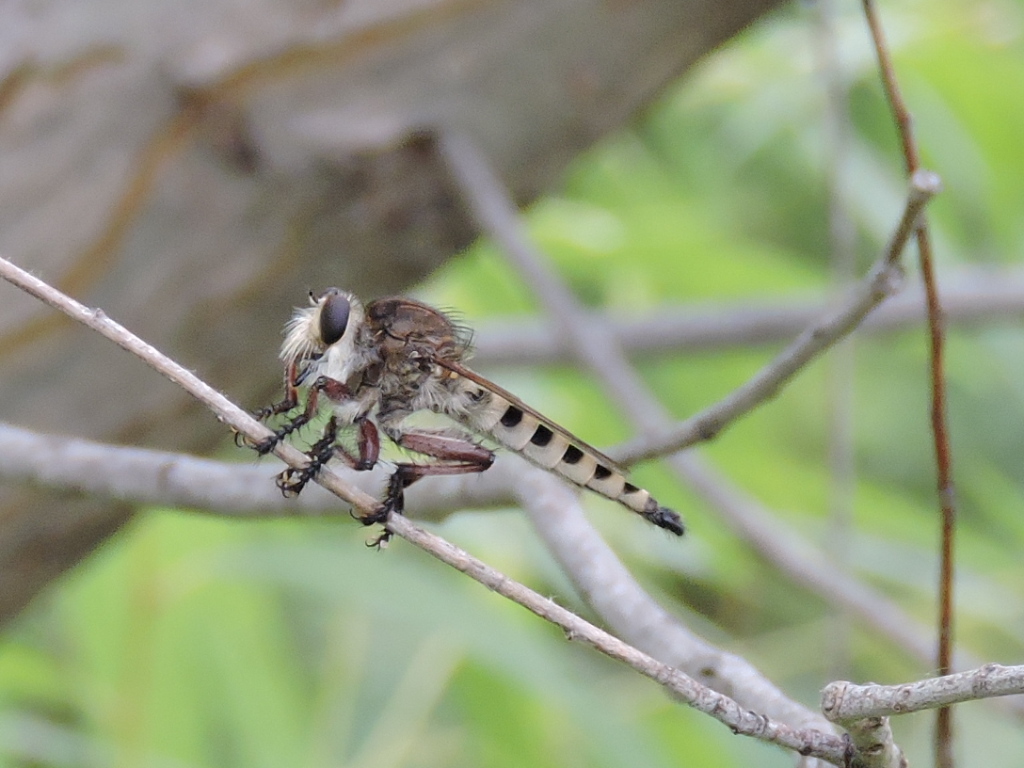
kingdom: Animalia
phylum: Arthropoda
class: Insecta
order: Diptera
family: Asilidae
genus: Promachus
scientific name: Promachus hinei
